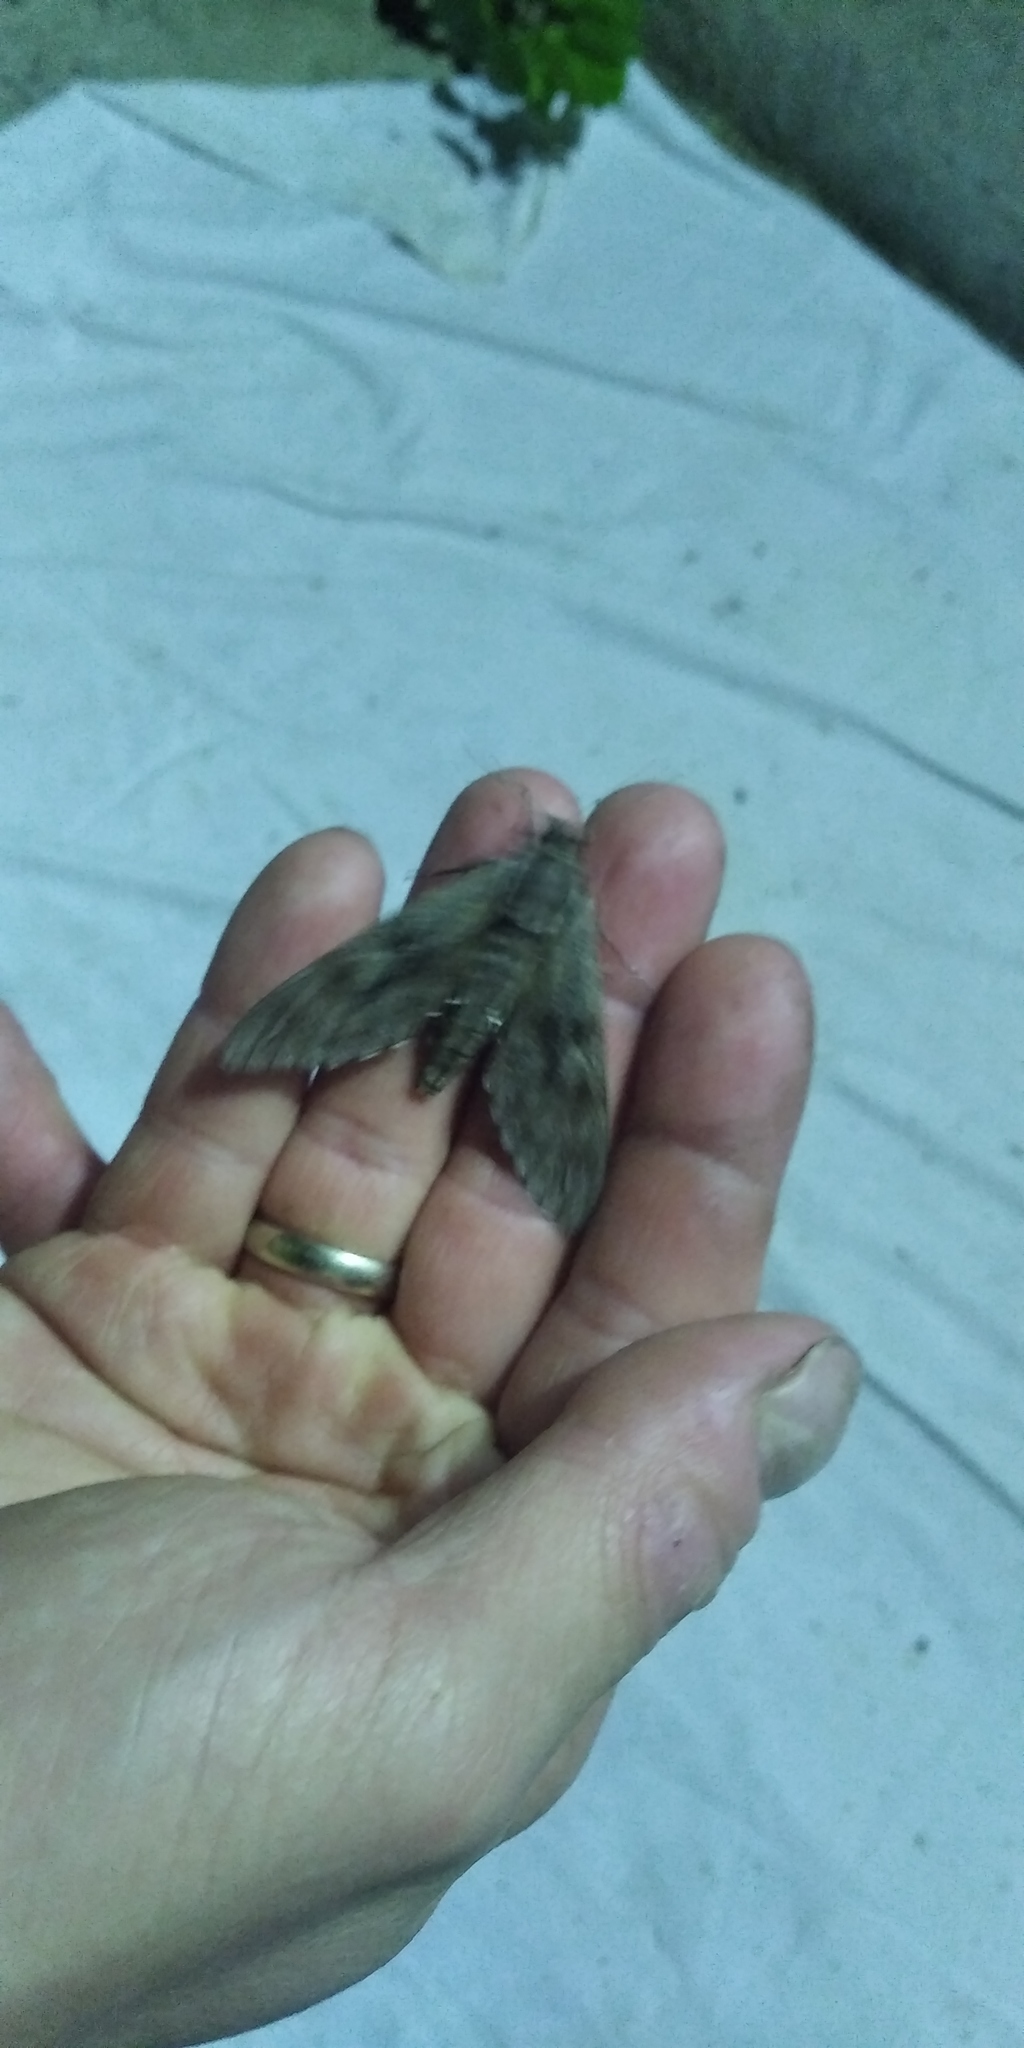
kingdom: Animalia
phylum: Arthropoda
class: Insecta
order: Lepidoptera
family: Sphingidae
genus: Sphinx
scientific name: Sphinx pinastri
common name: Pine hawk-moth
